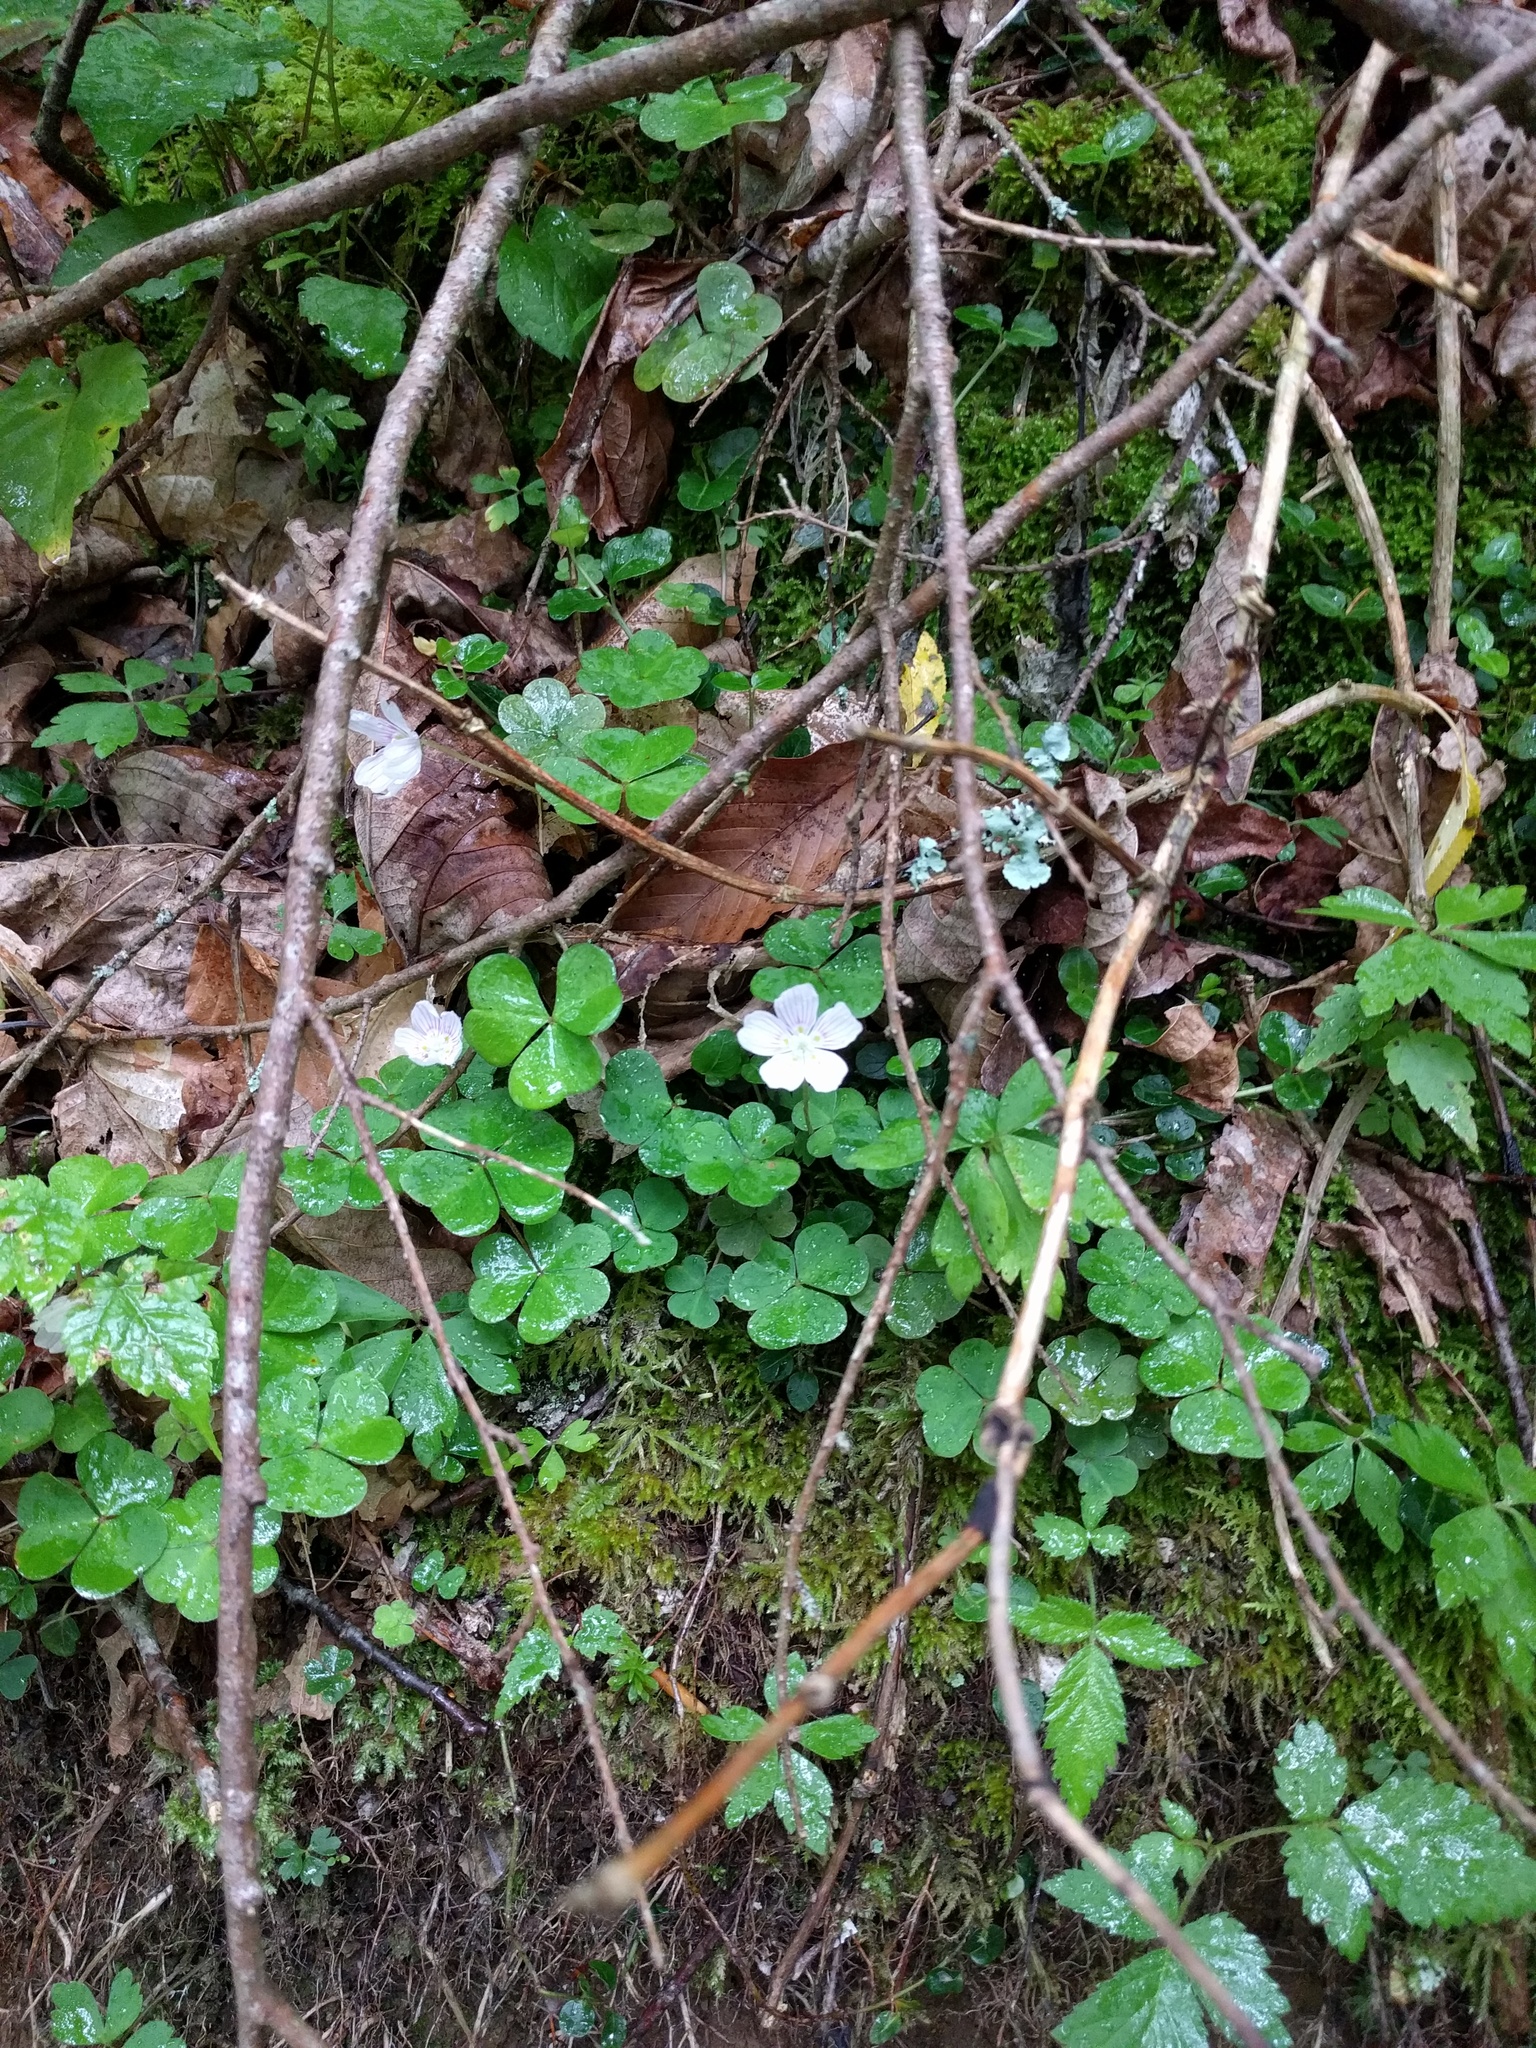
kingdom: Plantae
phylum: Tracheophyta
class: Magnoliopsida
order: Oxalidales
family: Oxalidaceae
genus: Oxalis
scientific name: Oxalis montana
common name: American wood-sorrel
